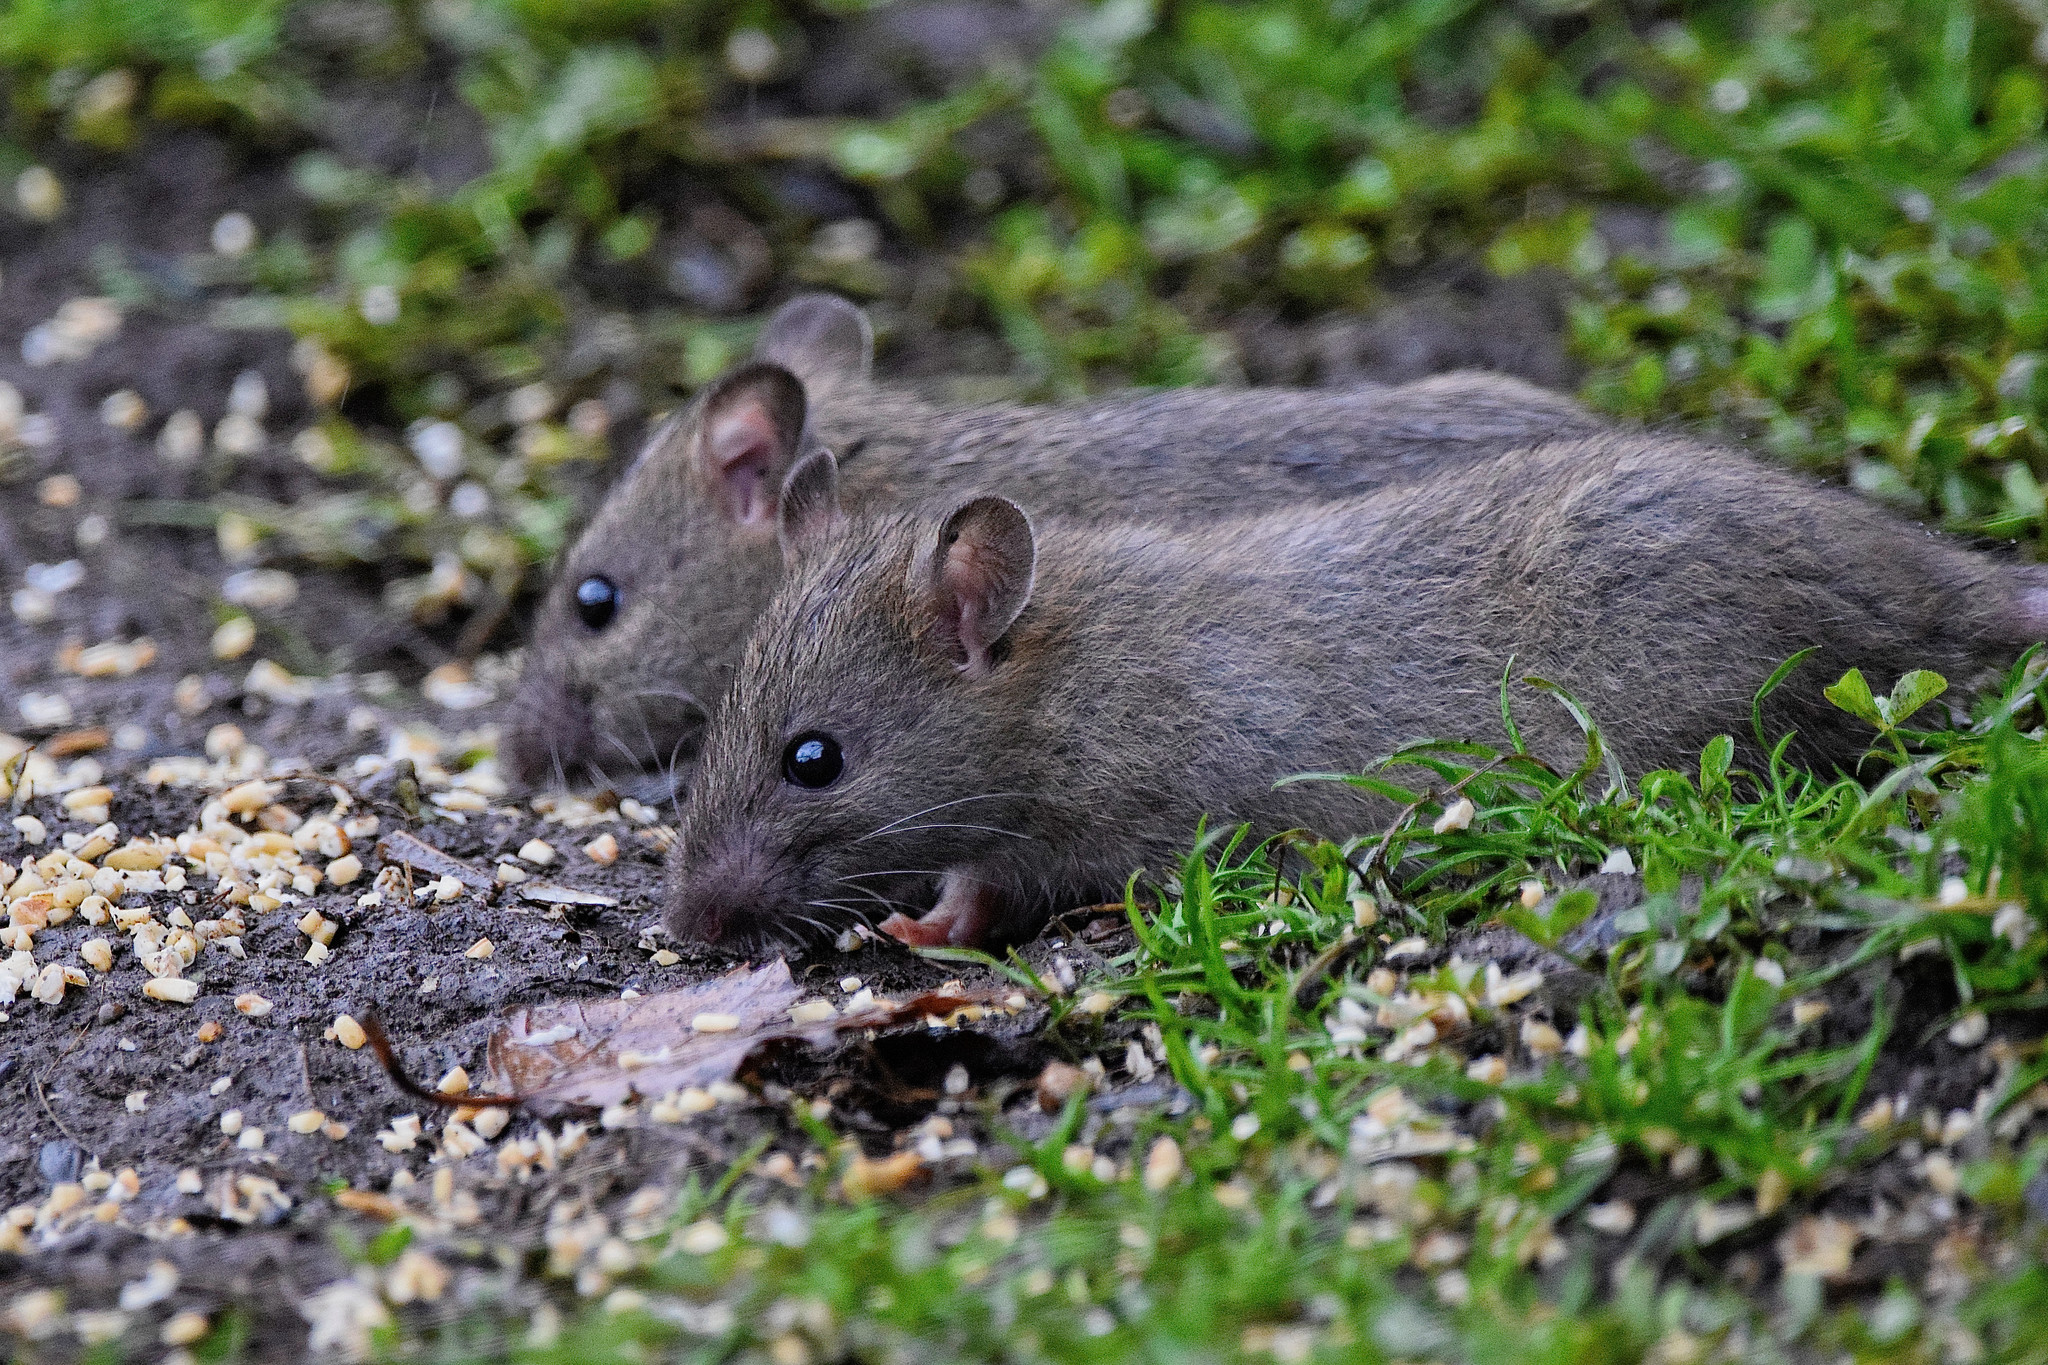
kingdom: Animalia
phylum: Chordata
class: Mammalia
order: Rodentia
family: Muridae
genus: Rattus
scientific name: Rattus norvegicus
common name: Brown rat
